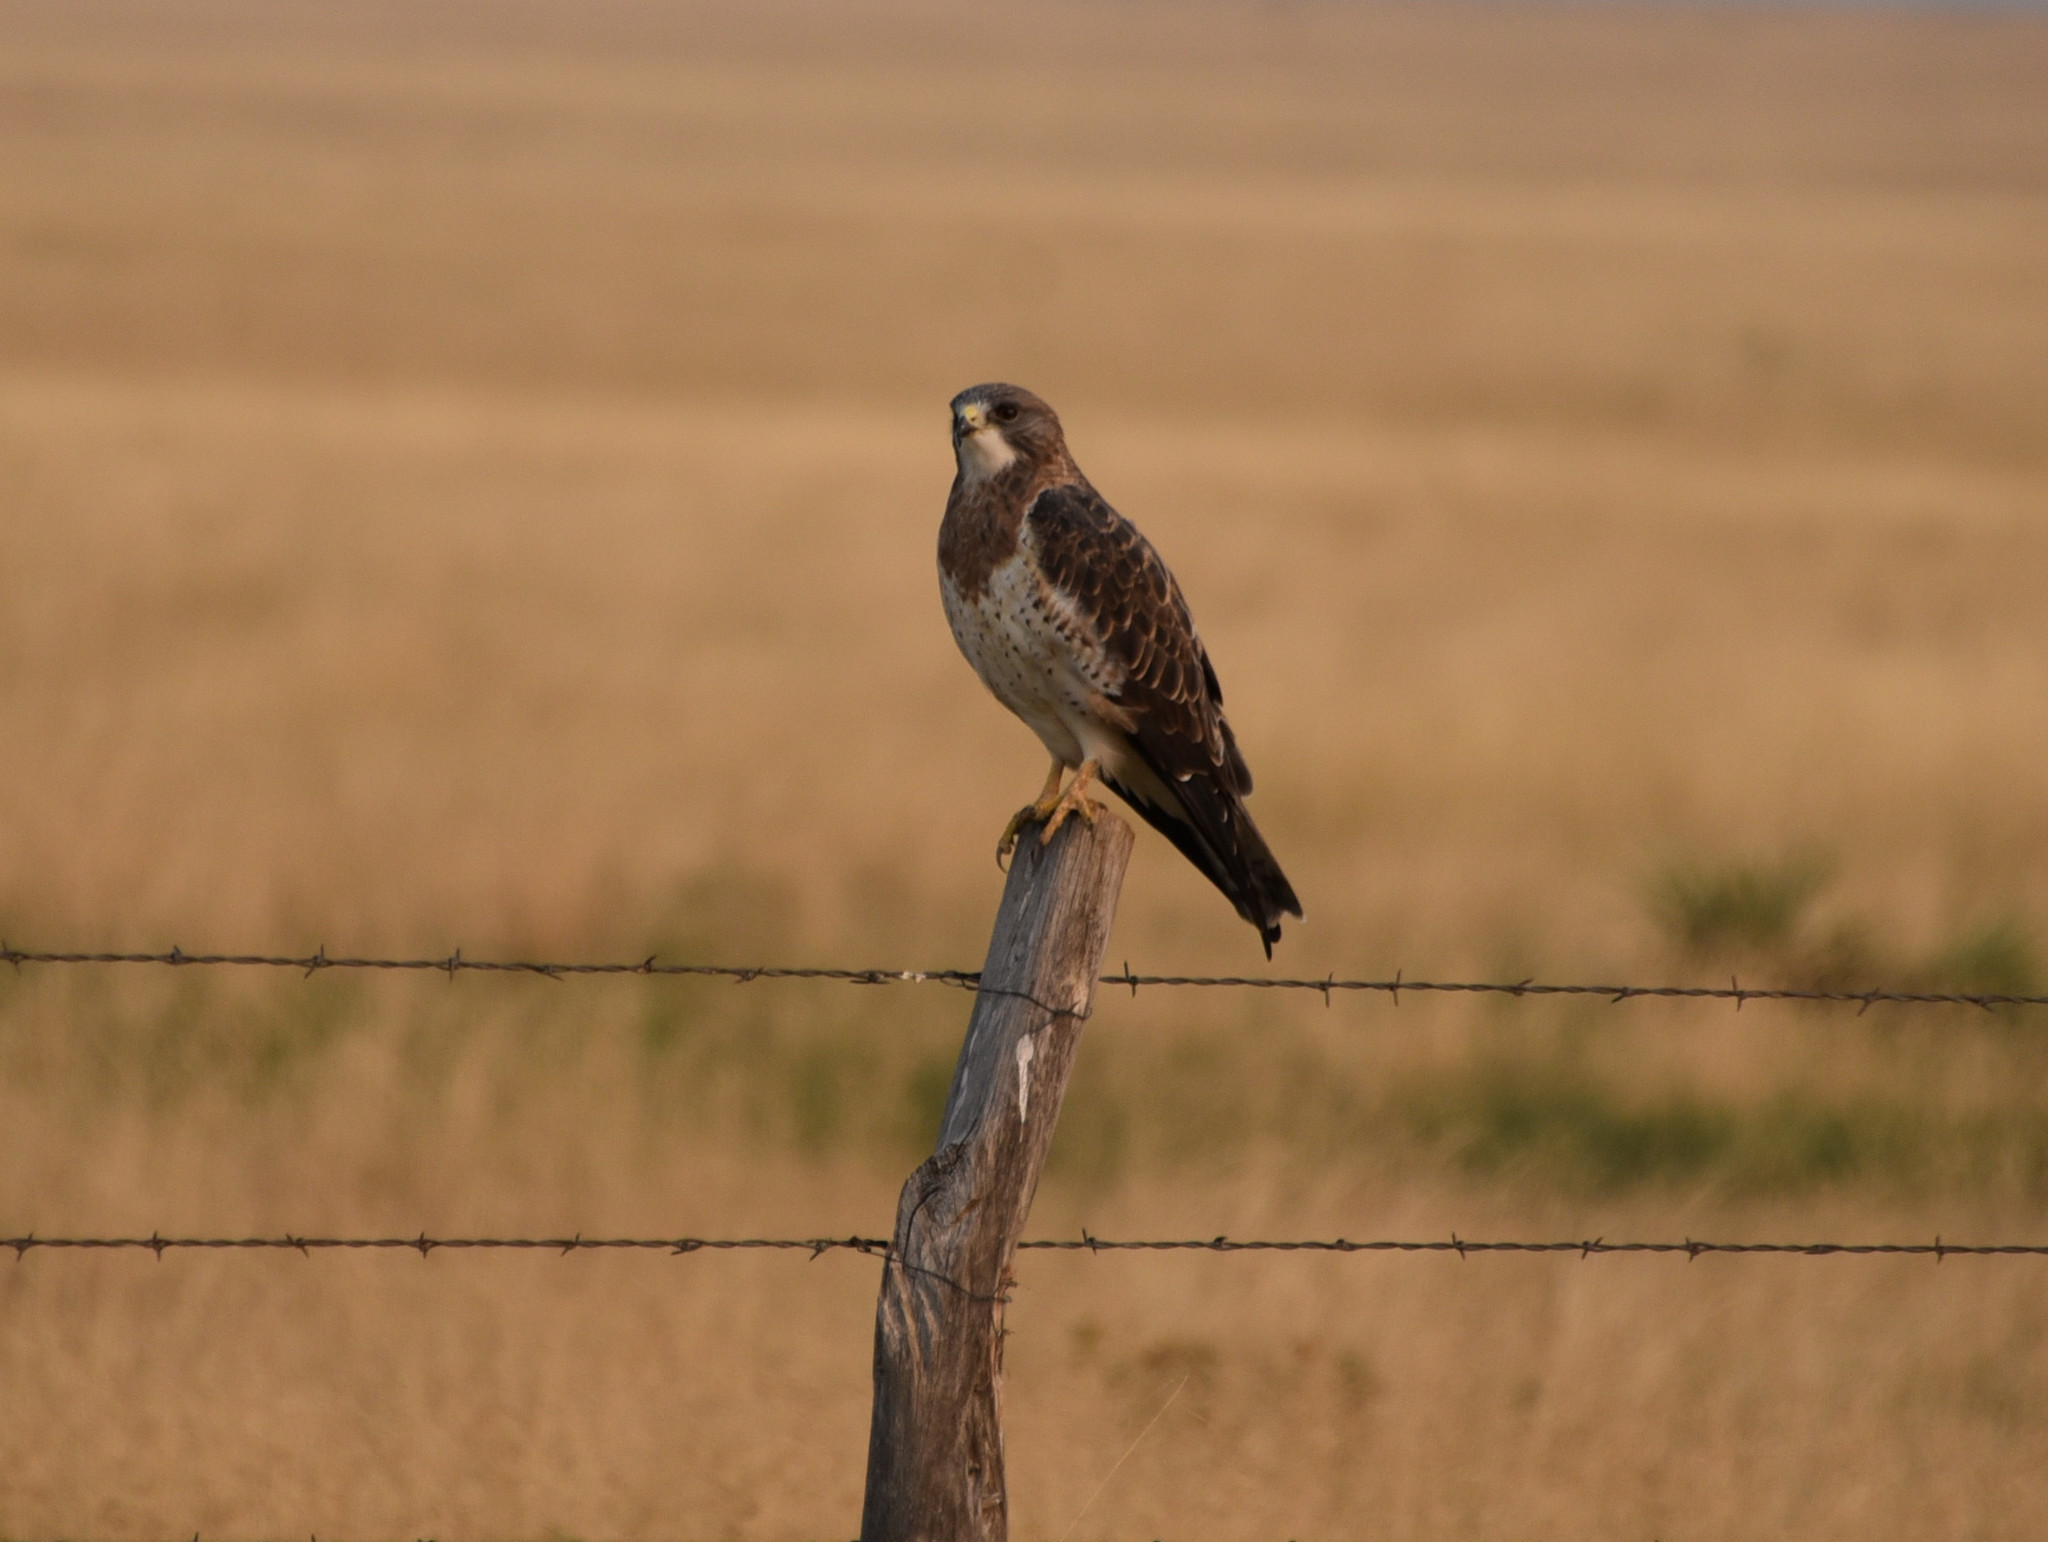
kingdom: Animalia
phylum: Chordata
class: Aves
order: Accipitriformes
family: Accipitridae
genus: Buteo
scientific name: Buteo swainsoni
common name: Swainson's hawk
